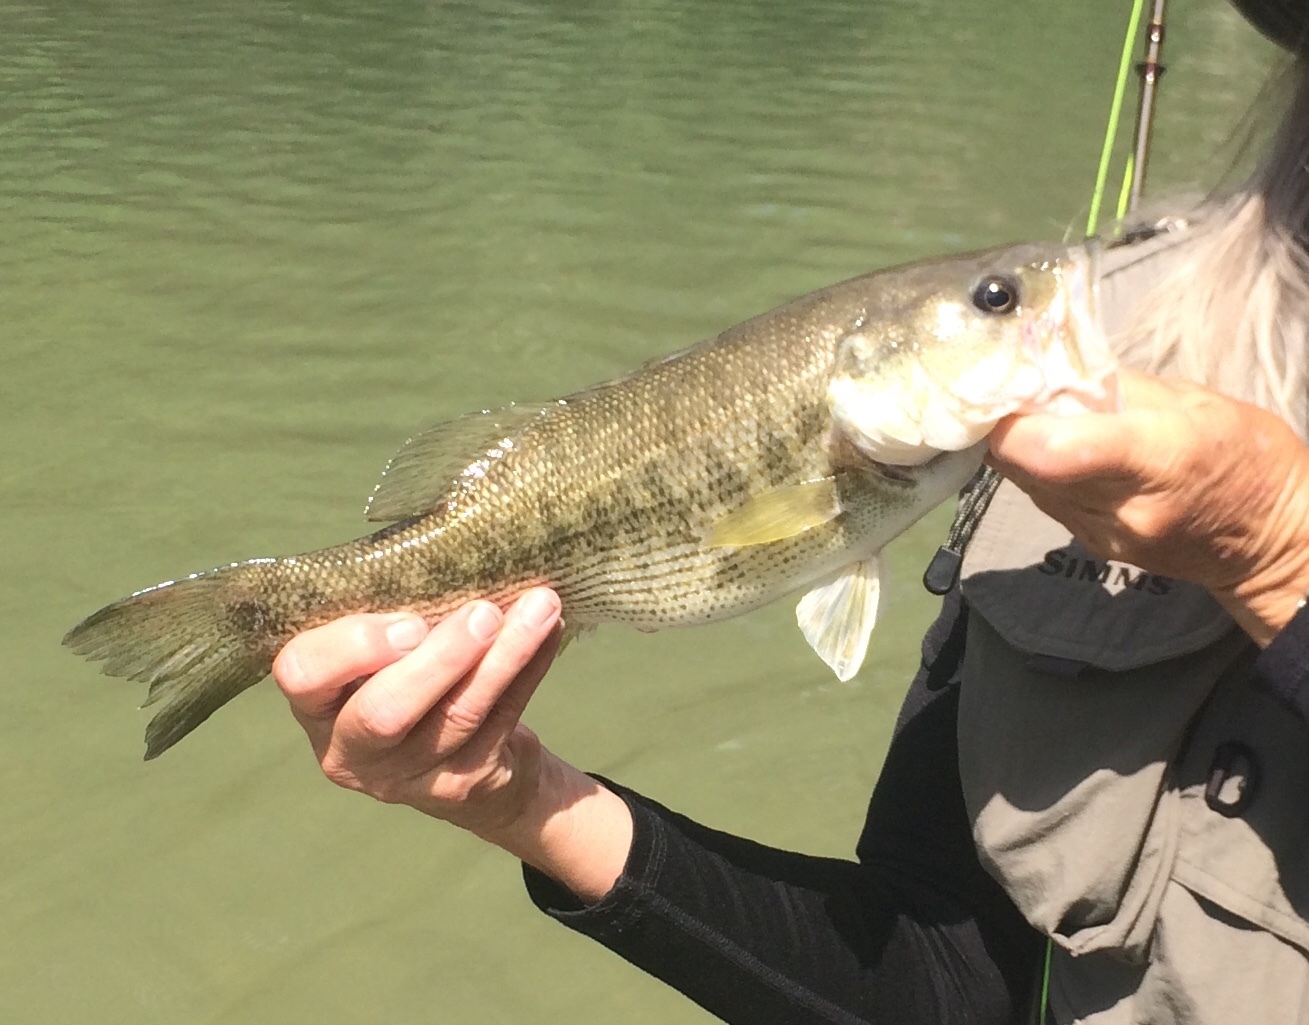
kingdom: Animalia
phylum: Chordata
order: Perciformes
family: Centrarchidae
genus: Micropterus
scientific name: Micropterus treculii
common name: Guadalupe bass
